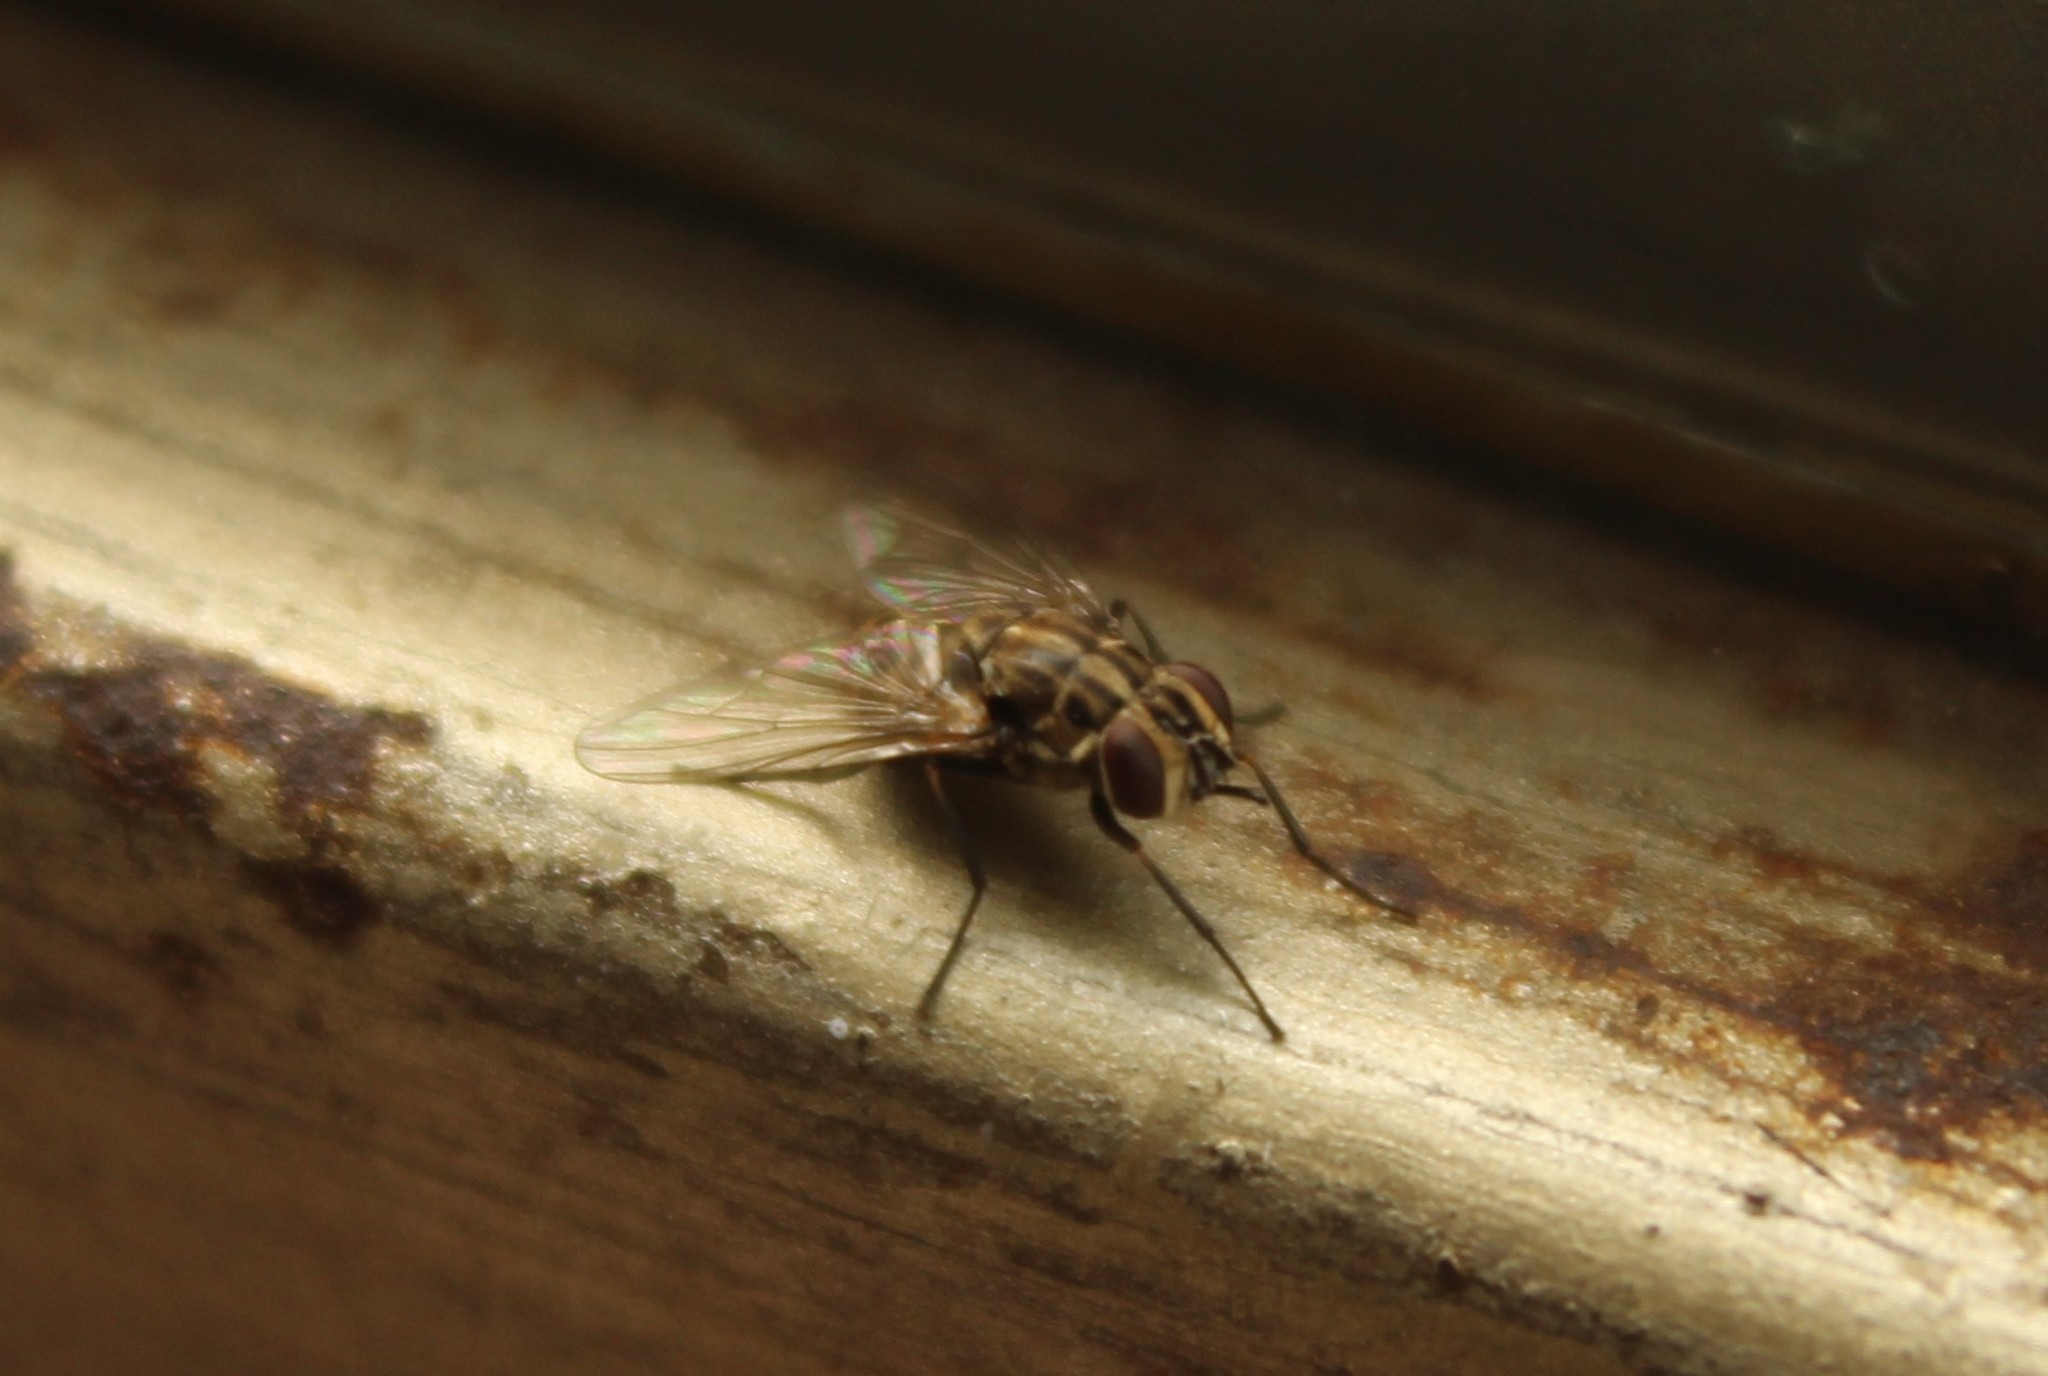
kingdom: Animalia
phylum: Arthropoda
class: Insecta
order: Diptera
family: Muscidae
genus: Stomoxys
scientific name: Stomoxys calcitrans
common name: Stable fly
